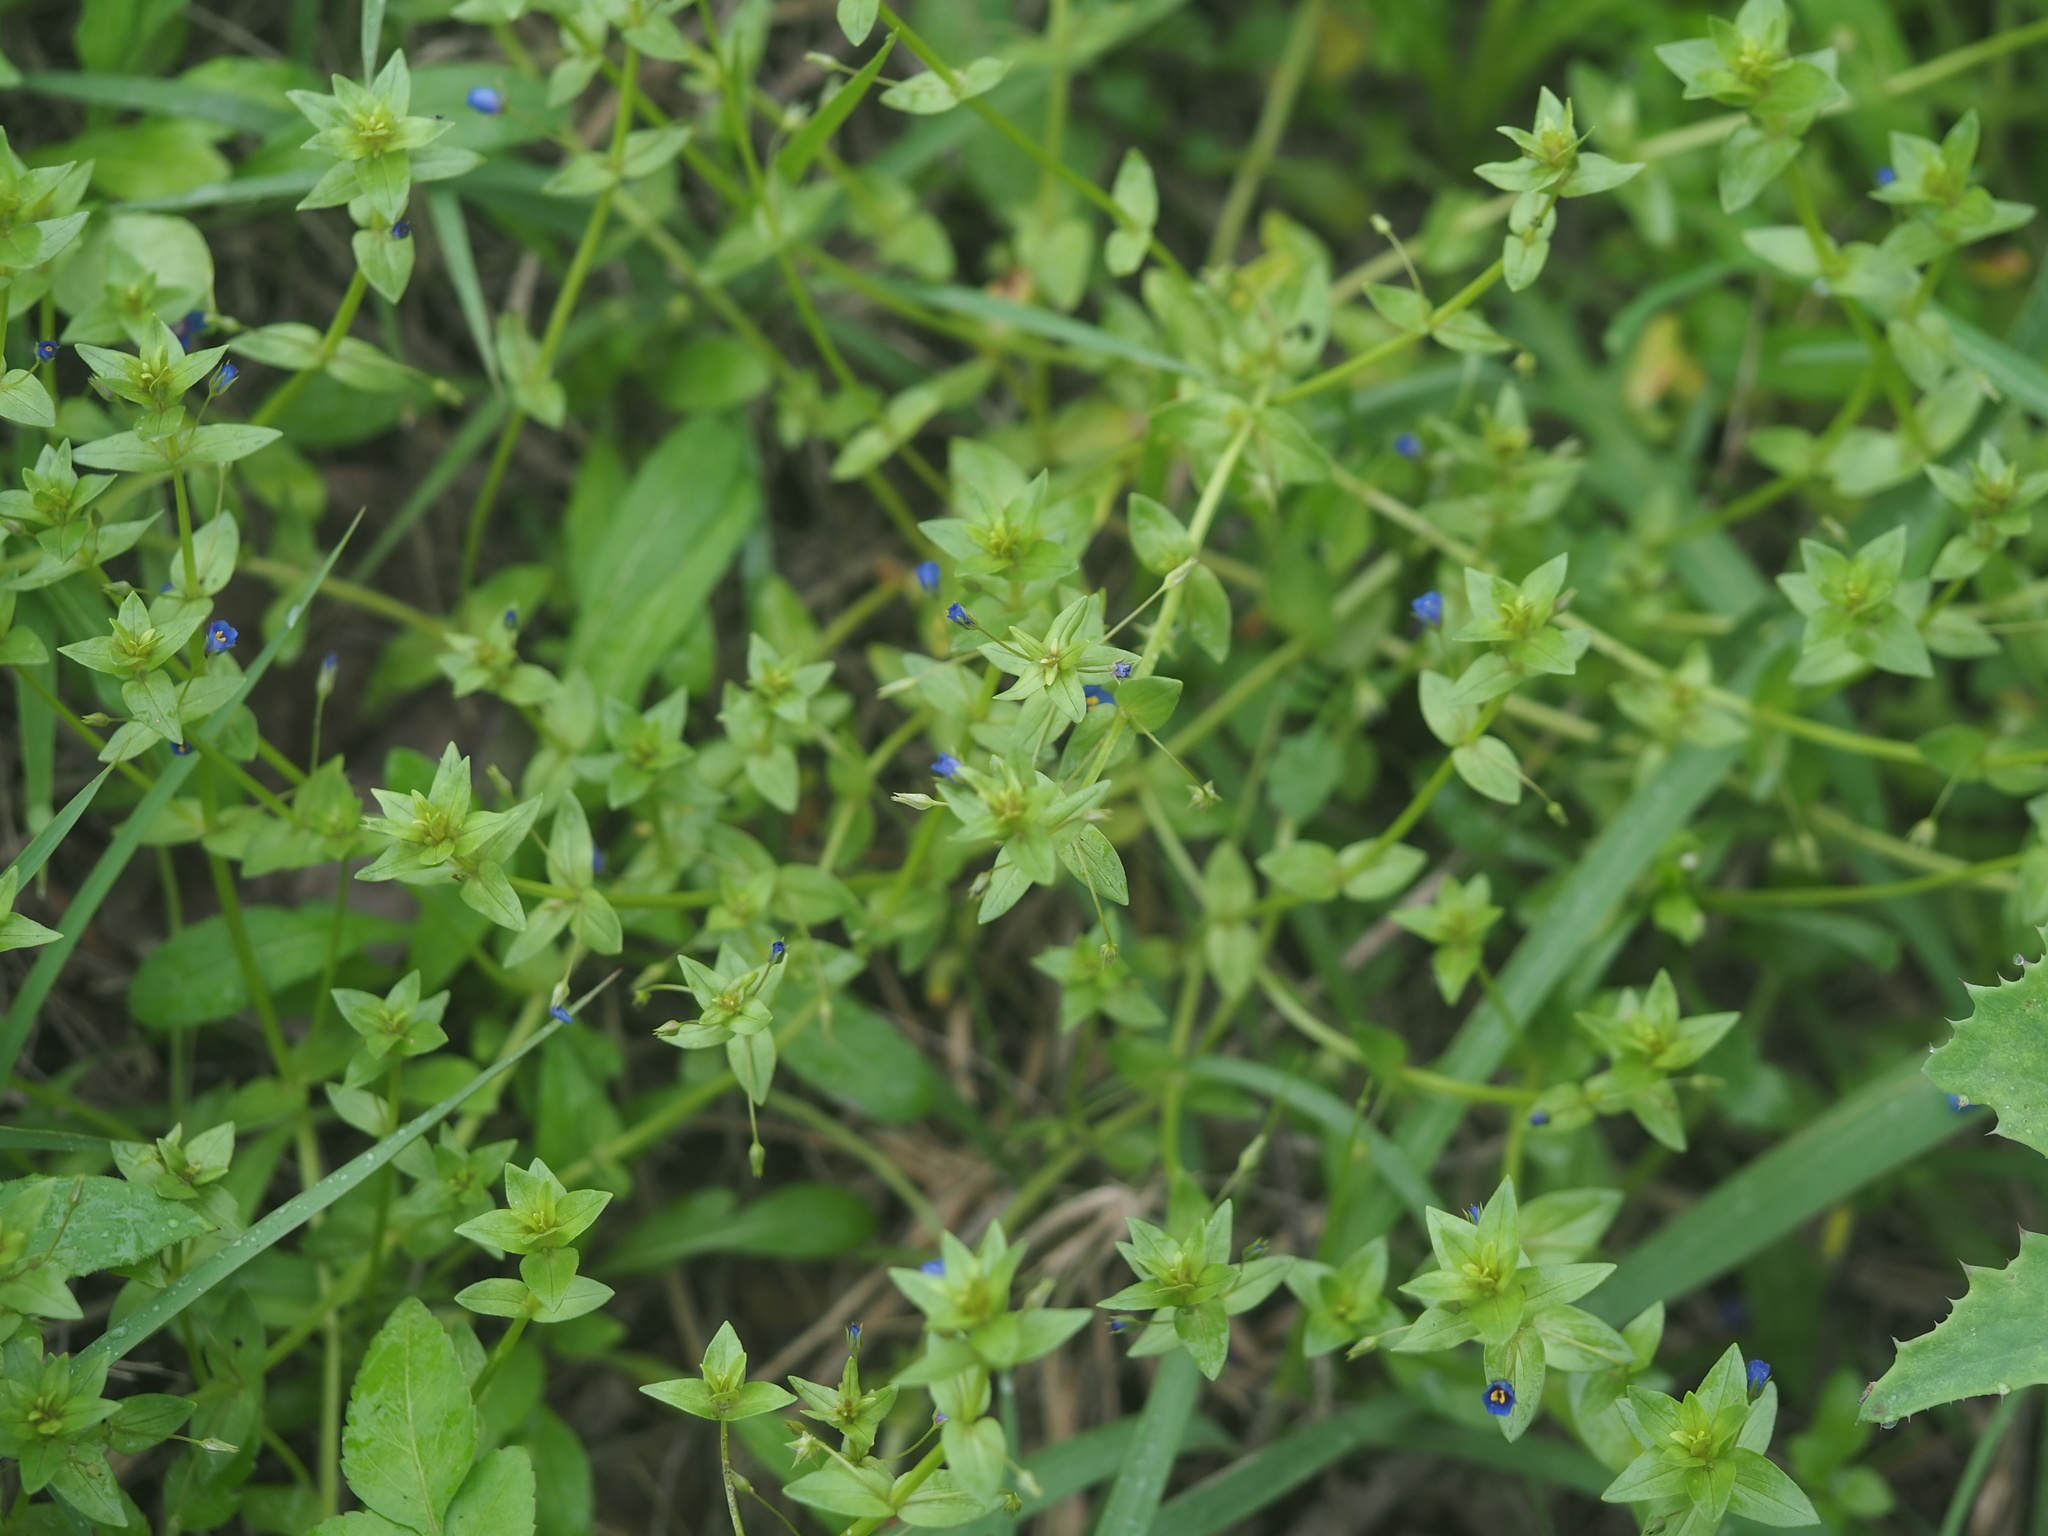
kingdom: Plantae
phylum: Tracheophyta
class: Magnoliopsida
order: Ericales
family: Primulaceae
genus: Lysimachia
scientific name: Lysimachia loeflingii
